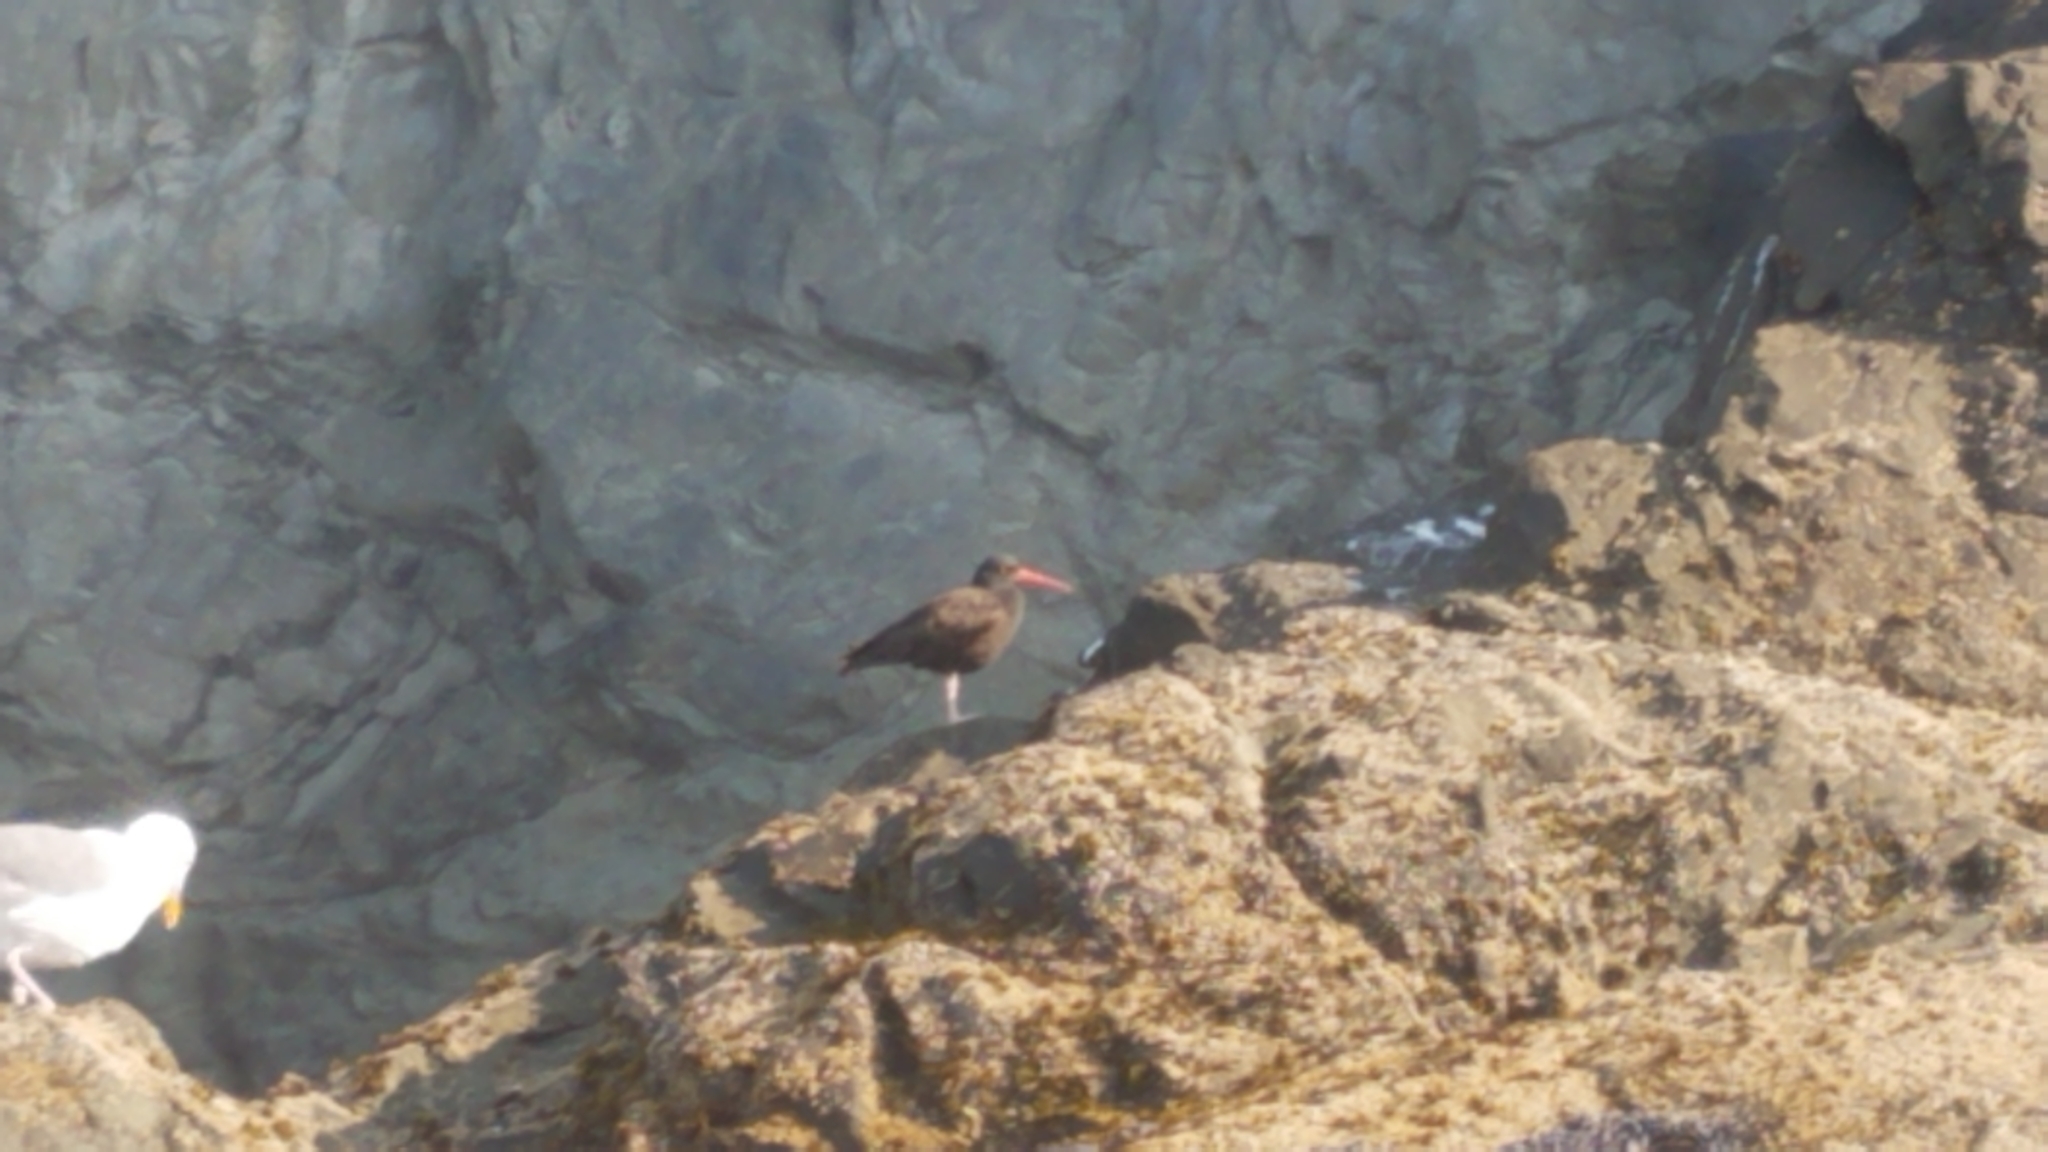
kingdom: Animalia
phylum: Chordata
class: Aves
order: Charadriiformes
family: Haematopodidae
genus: Haematopus
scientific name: Haematopus bachmani
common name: Black oystercatcher
